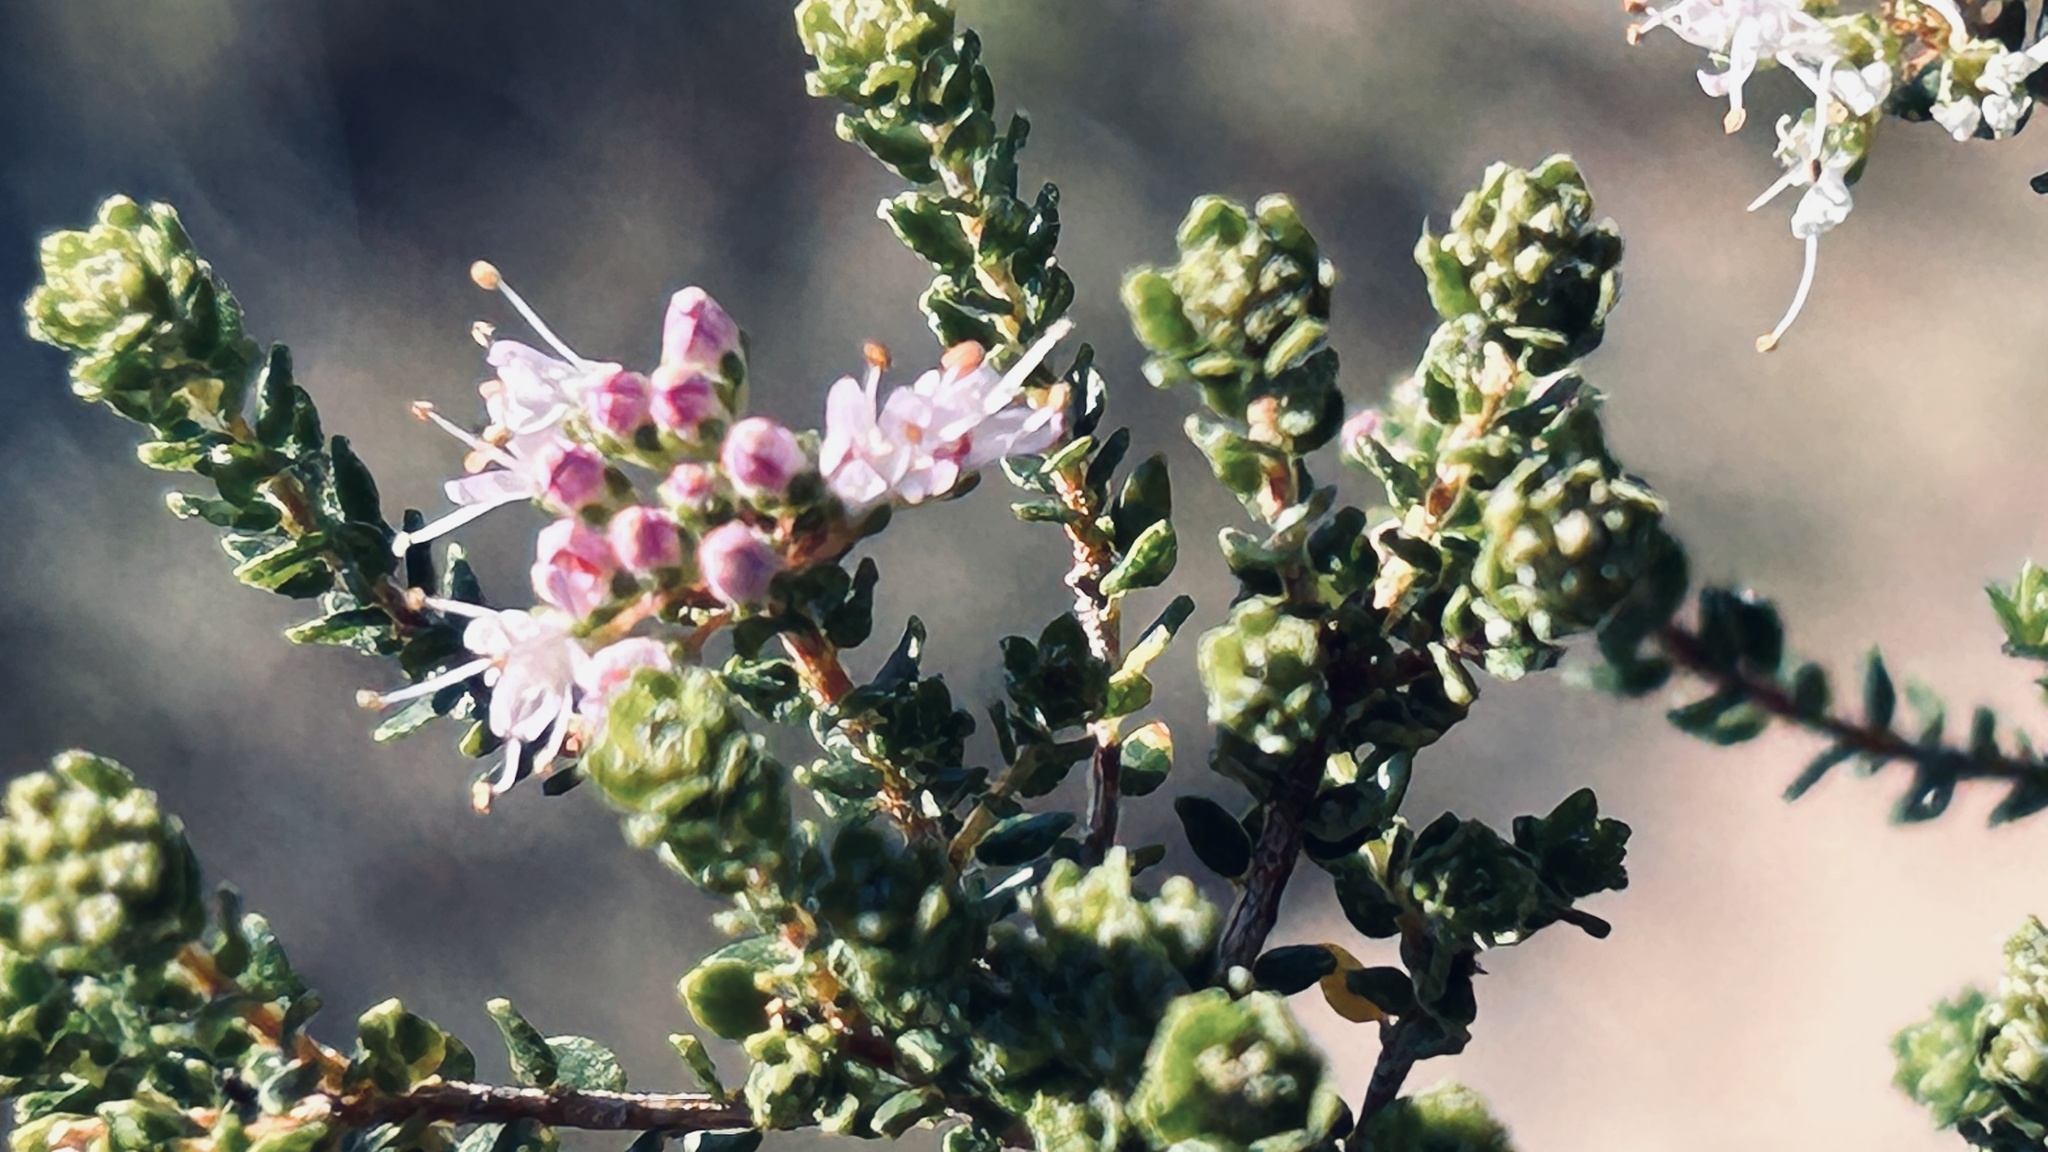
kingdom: Plantae
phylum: Tracheophyta
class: Magnoliopsida
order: Sapindales
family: Rutaceae
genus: Agathosma
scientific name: Agathosma capensis
